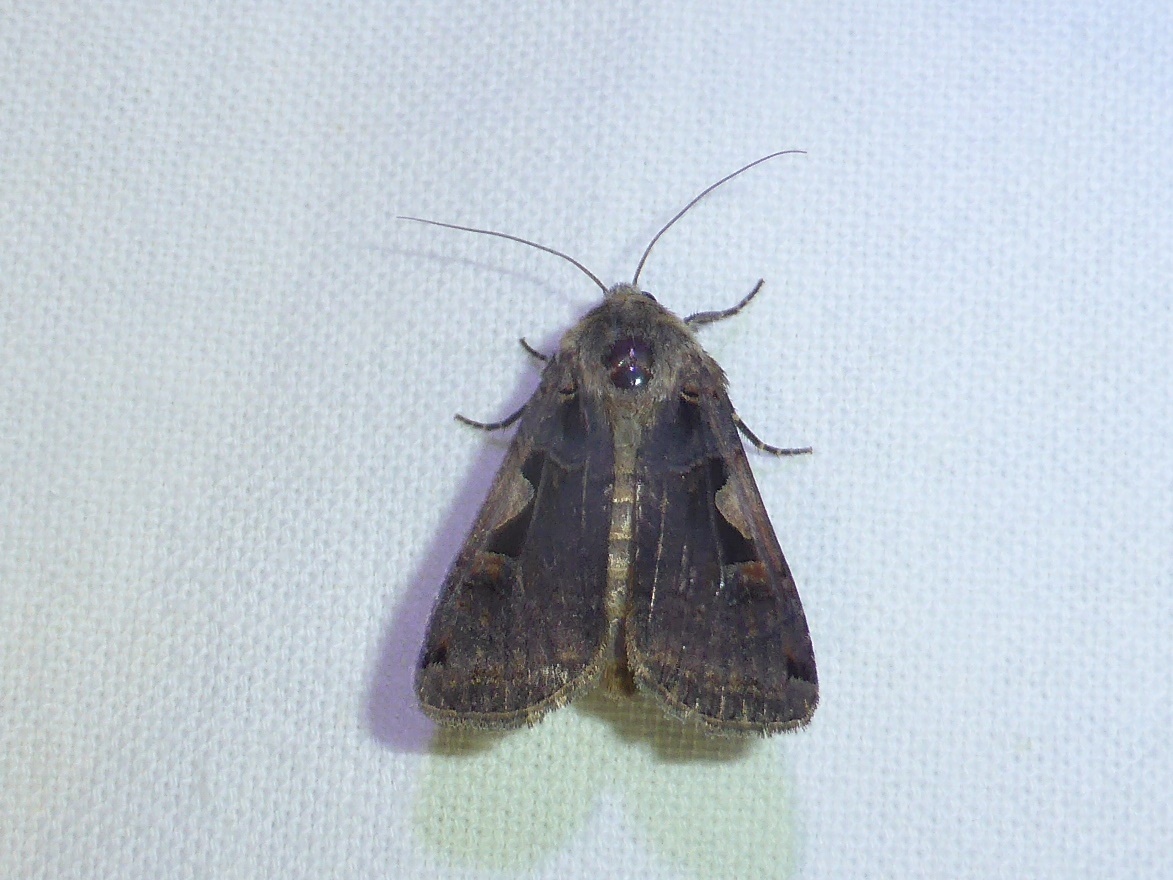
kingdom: Animalia
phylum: Arthropoda
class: Insecta
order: Lepidoptera
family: Noctuidae
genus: Xestia
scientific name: Xestia c-nigrum
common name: Setaceous hebrew character
